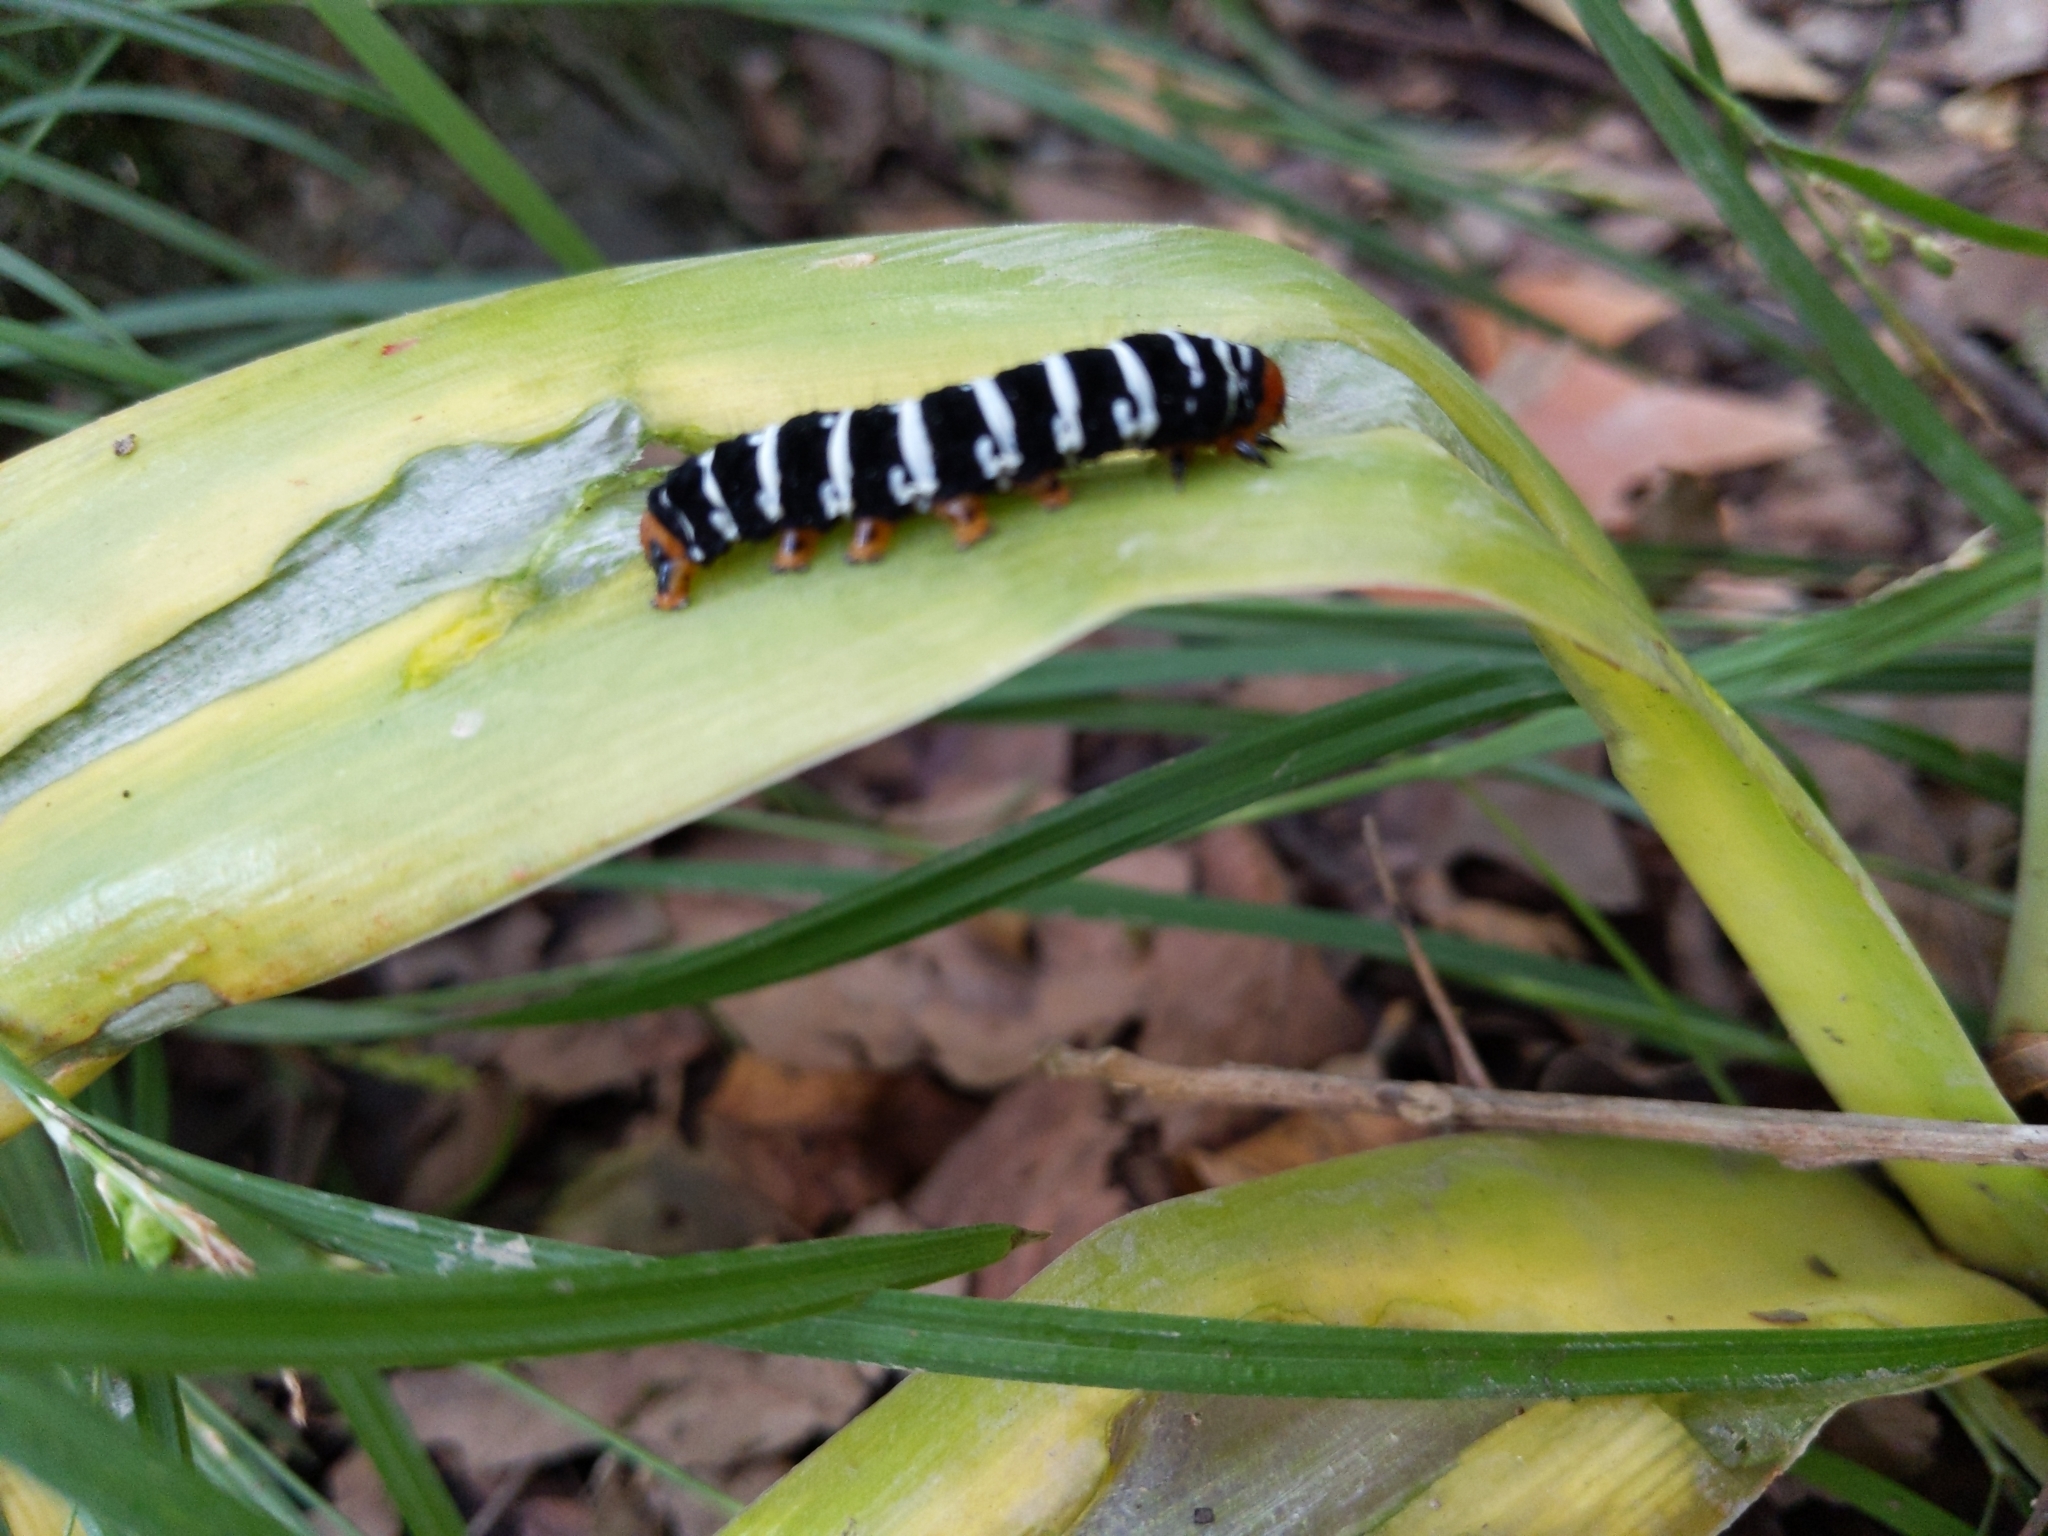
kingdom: Animalia
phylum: Arthropoda
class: Insecta
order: Lepidoptera
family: Noctuidae
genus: Xanthopastis
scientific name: Xanthopastis regnatrix
